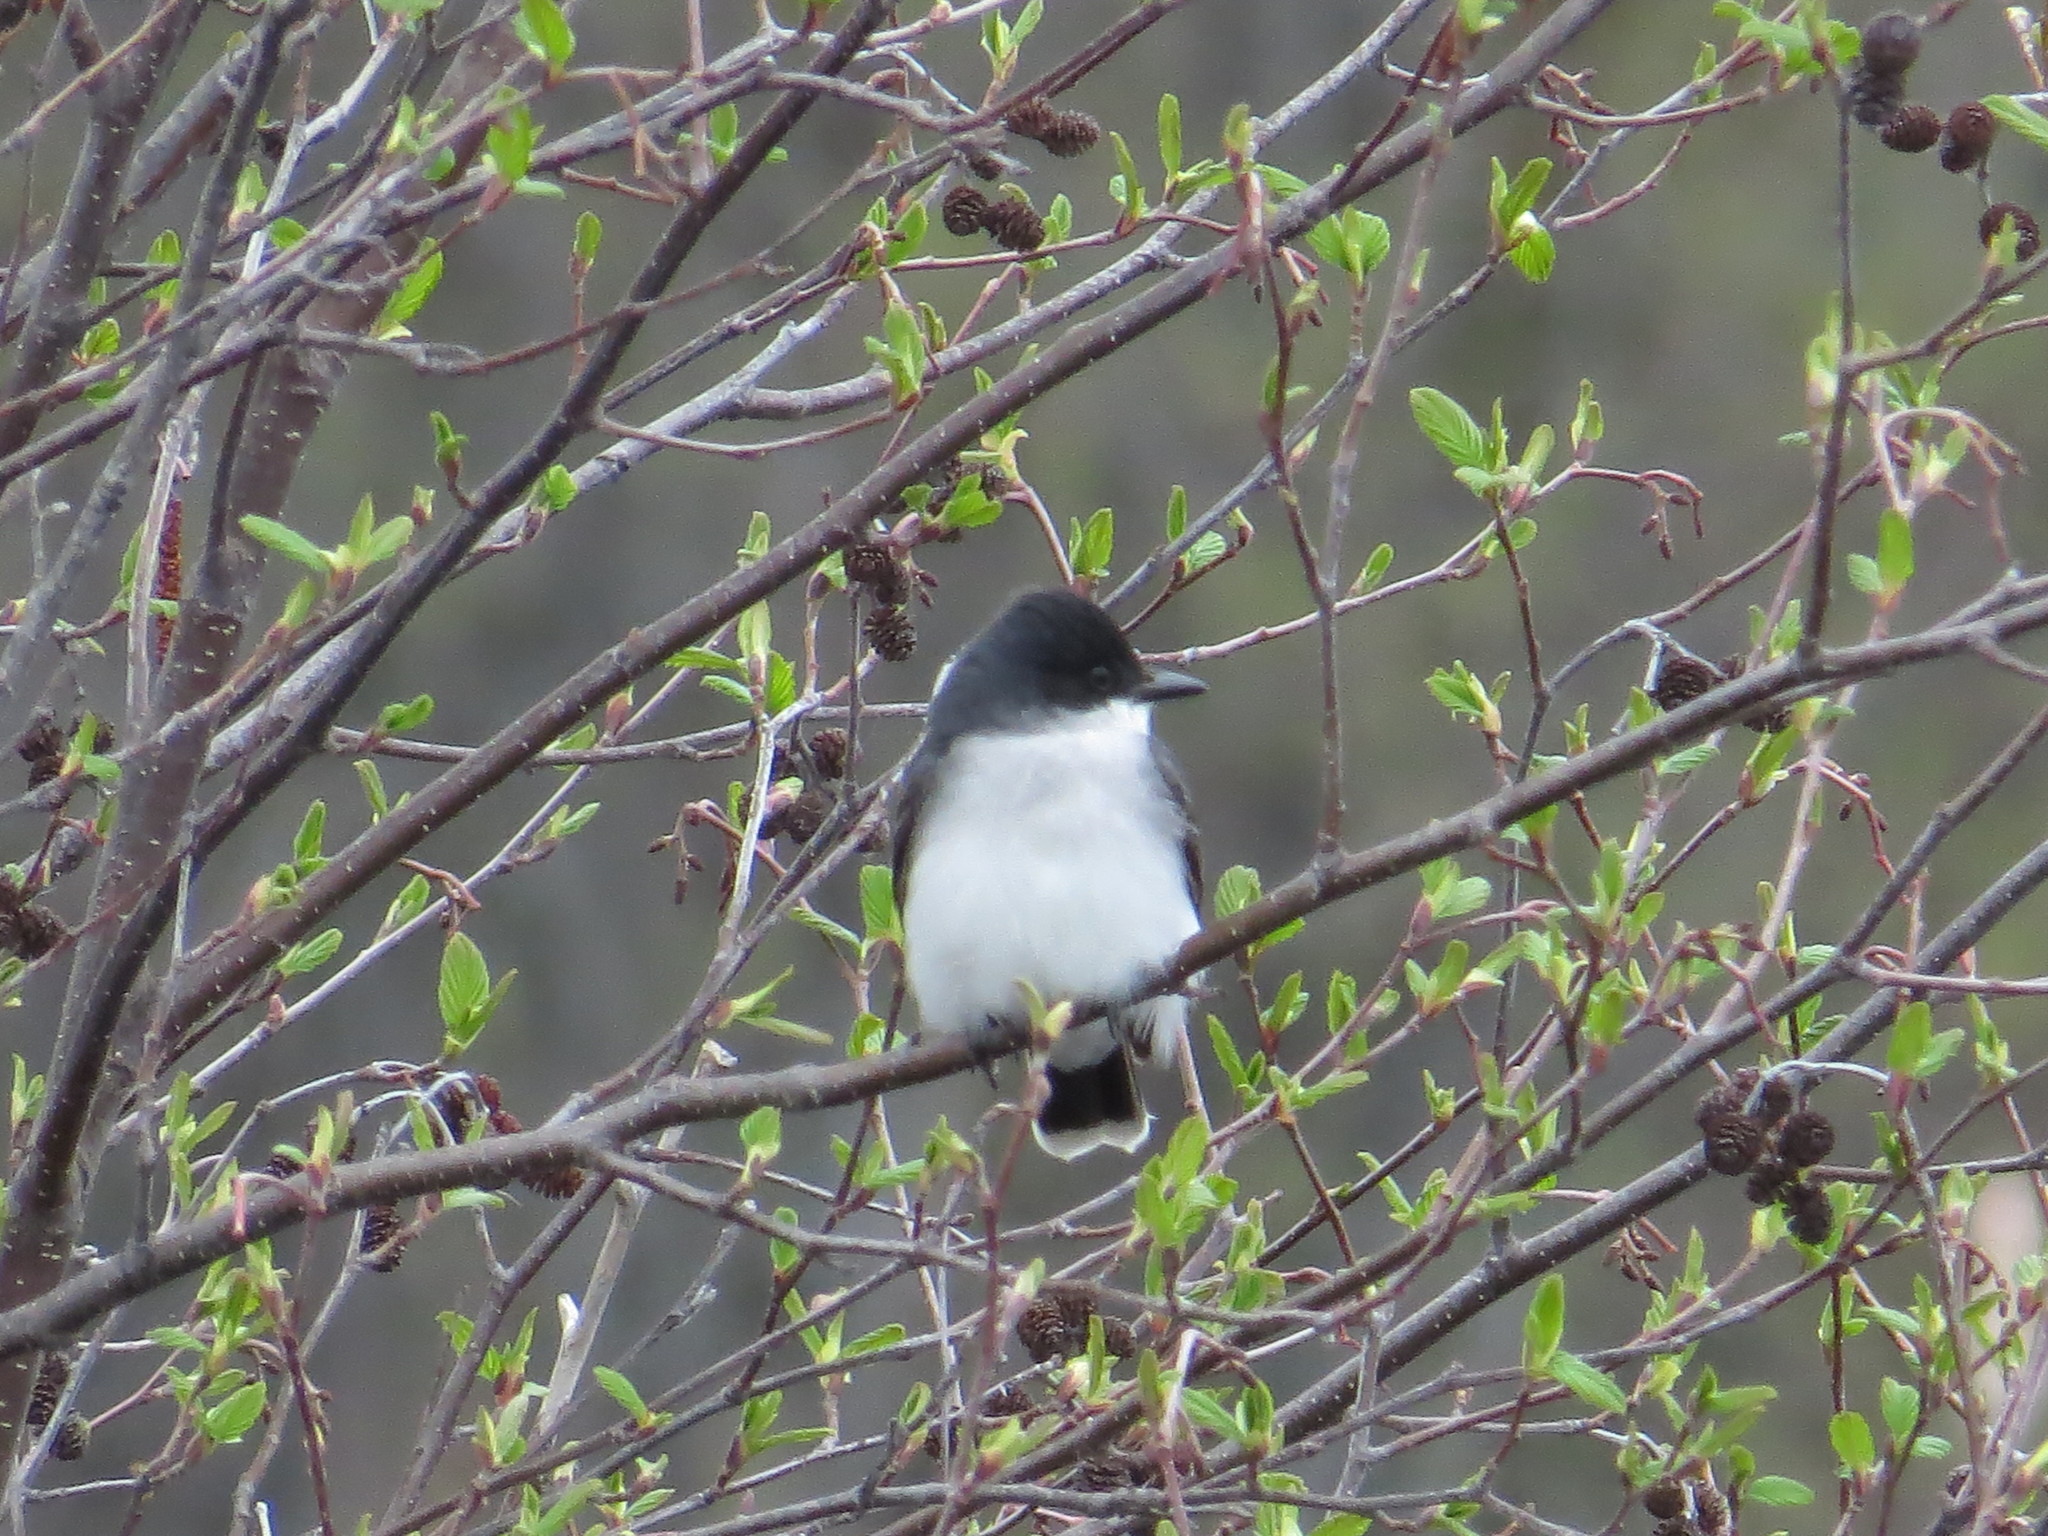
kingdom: Animalia
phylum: Chordata
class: Aves
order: Passeriformes
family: Tyrannidae
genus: Tyrannus
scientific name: Tyrannus tyrannus
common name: Eastern kingbird
